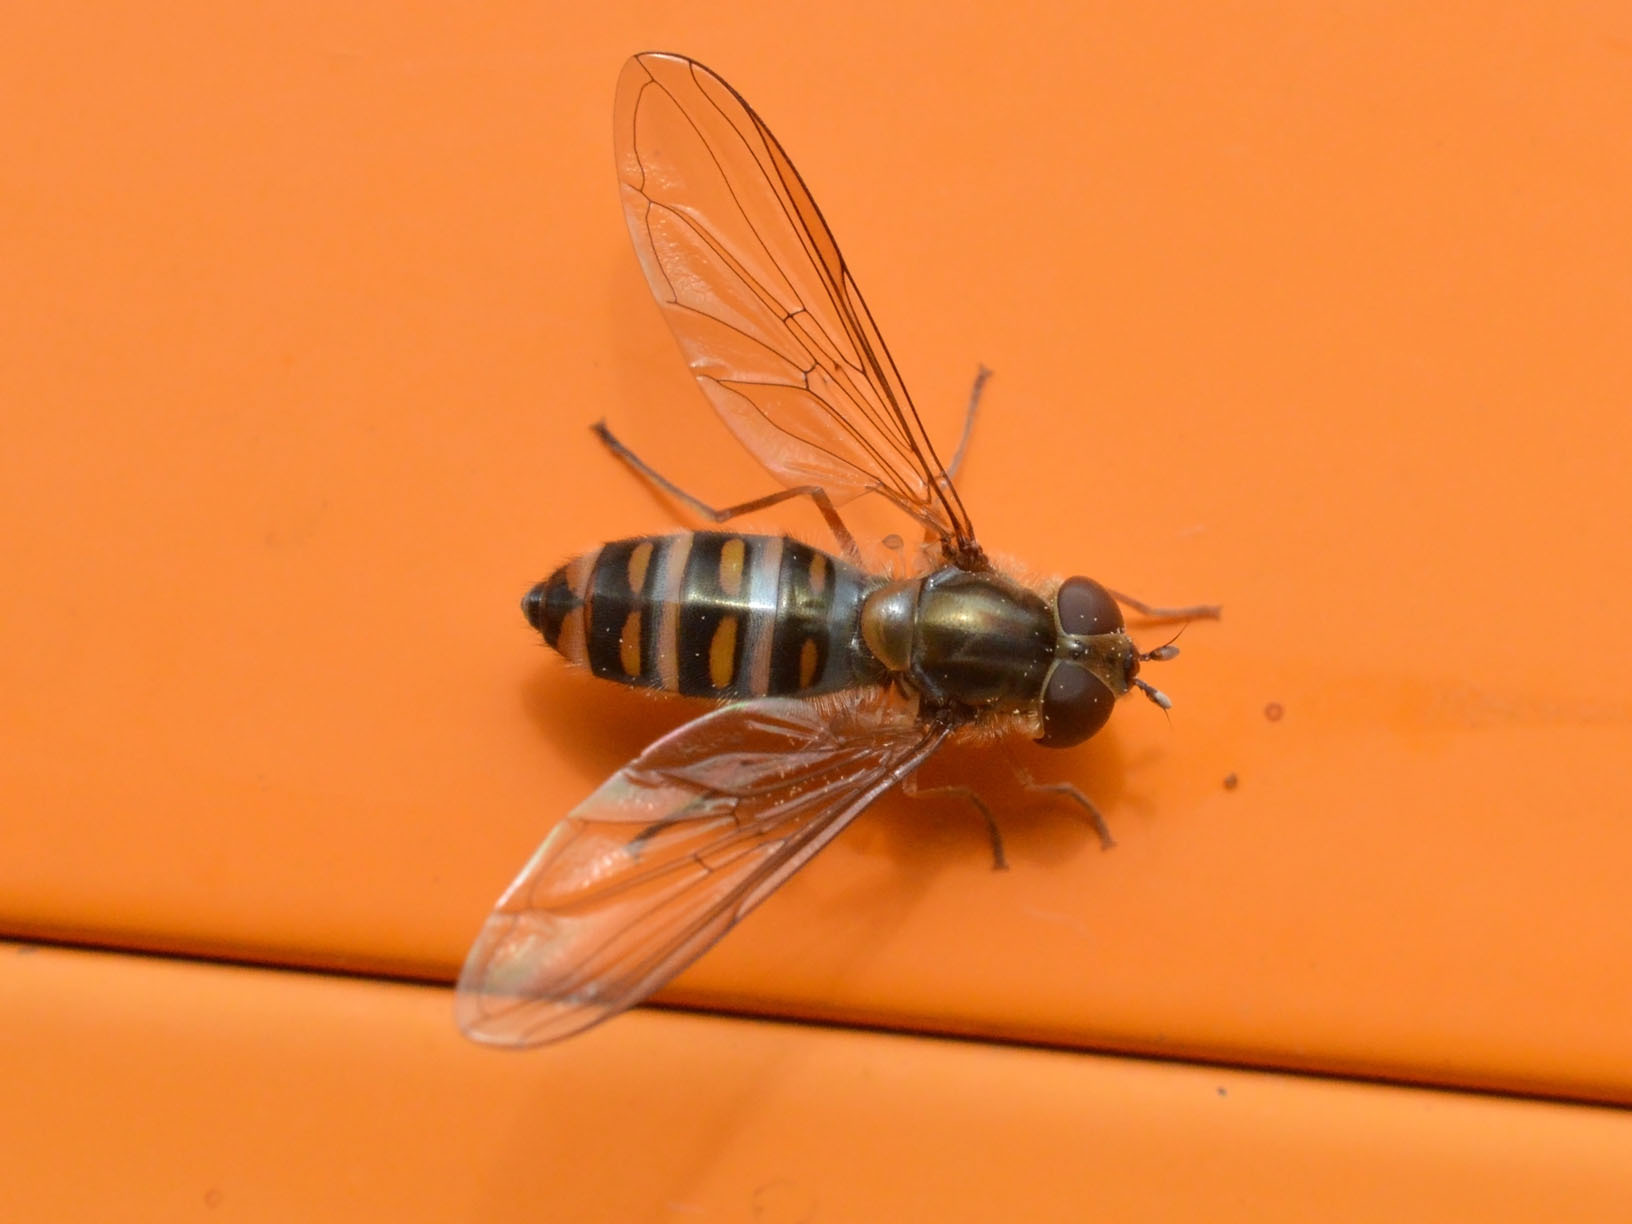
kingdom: Animalia
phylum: Arthropoda
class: Insecta
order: Diptera
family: Syrphidae
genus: Episyrphus
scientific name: Episyrphus balteatus
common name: Marmalade hoverfly
